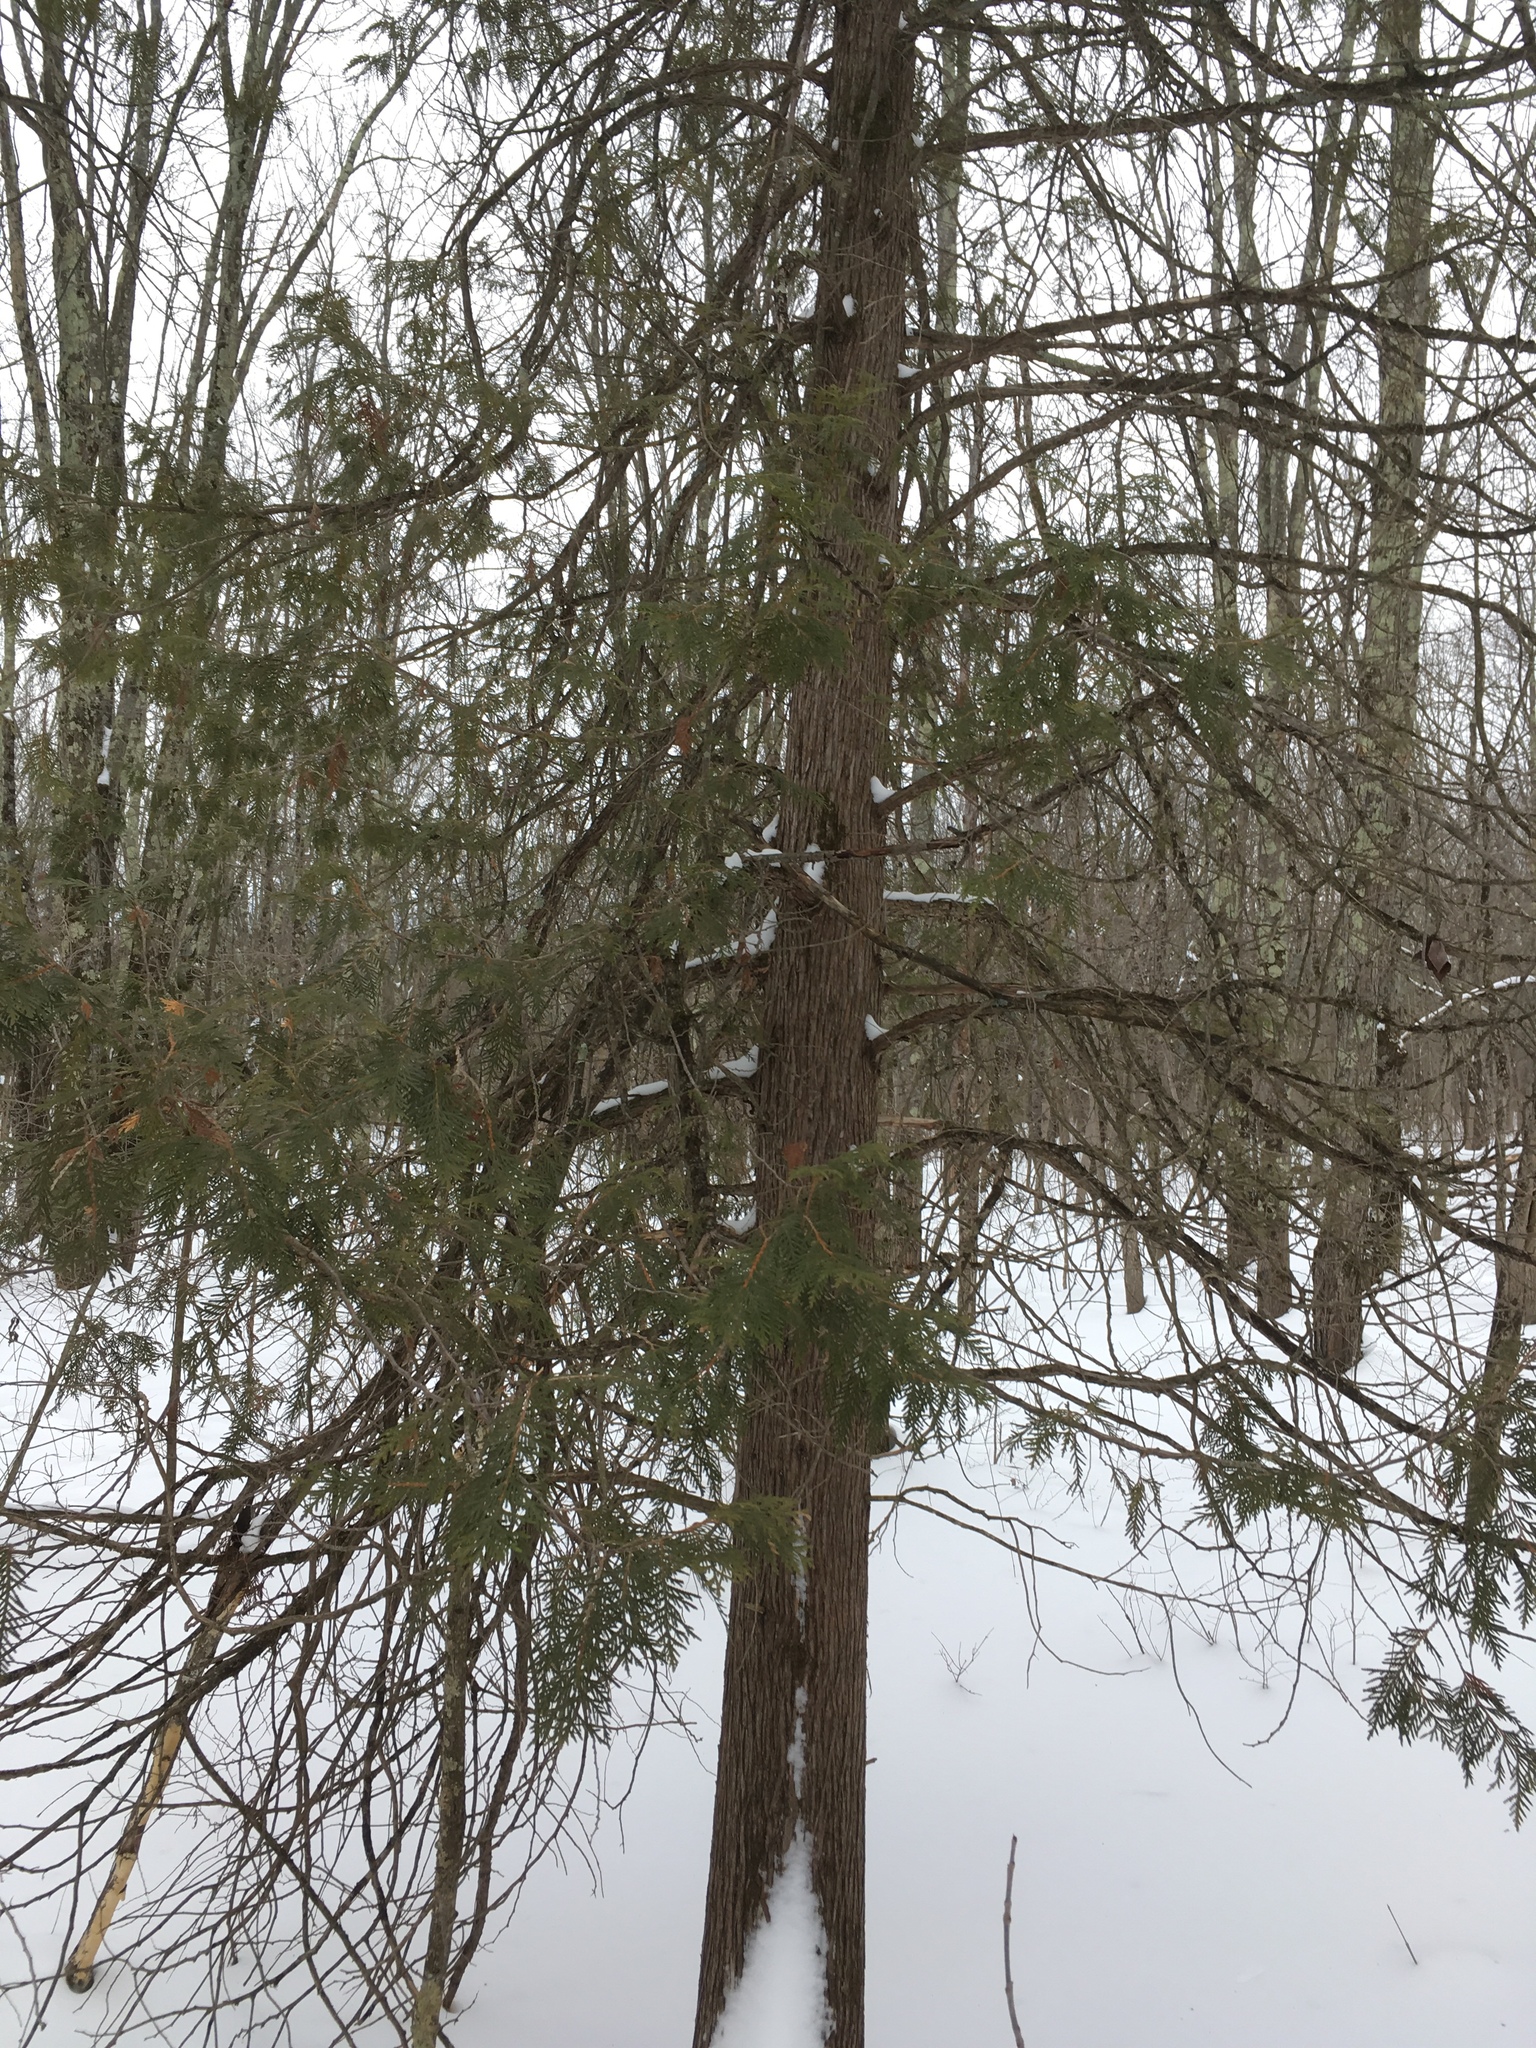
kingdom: Plantae
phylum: Tracheophyta
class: Pinopsida
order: Pinales
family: Cupressaceae
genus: Thuja
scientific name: Thuja occidentalis
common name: Northern white-cedar
